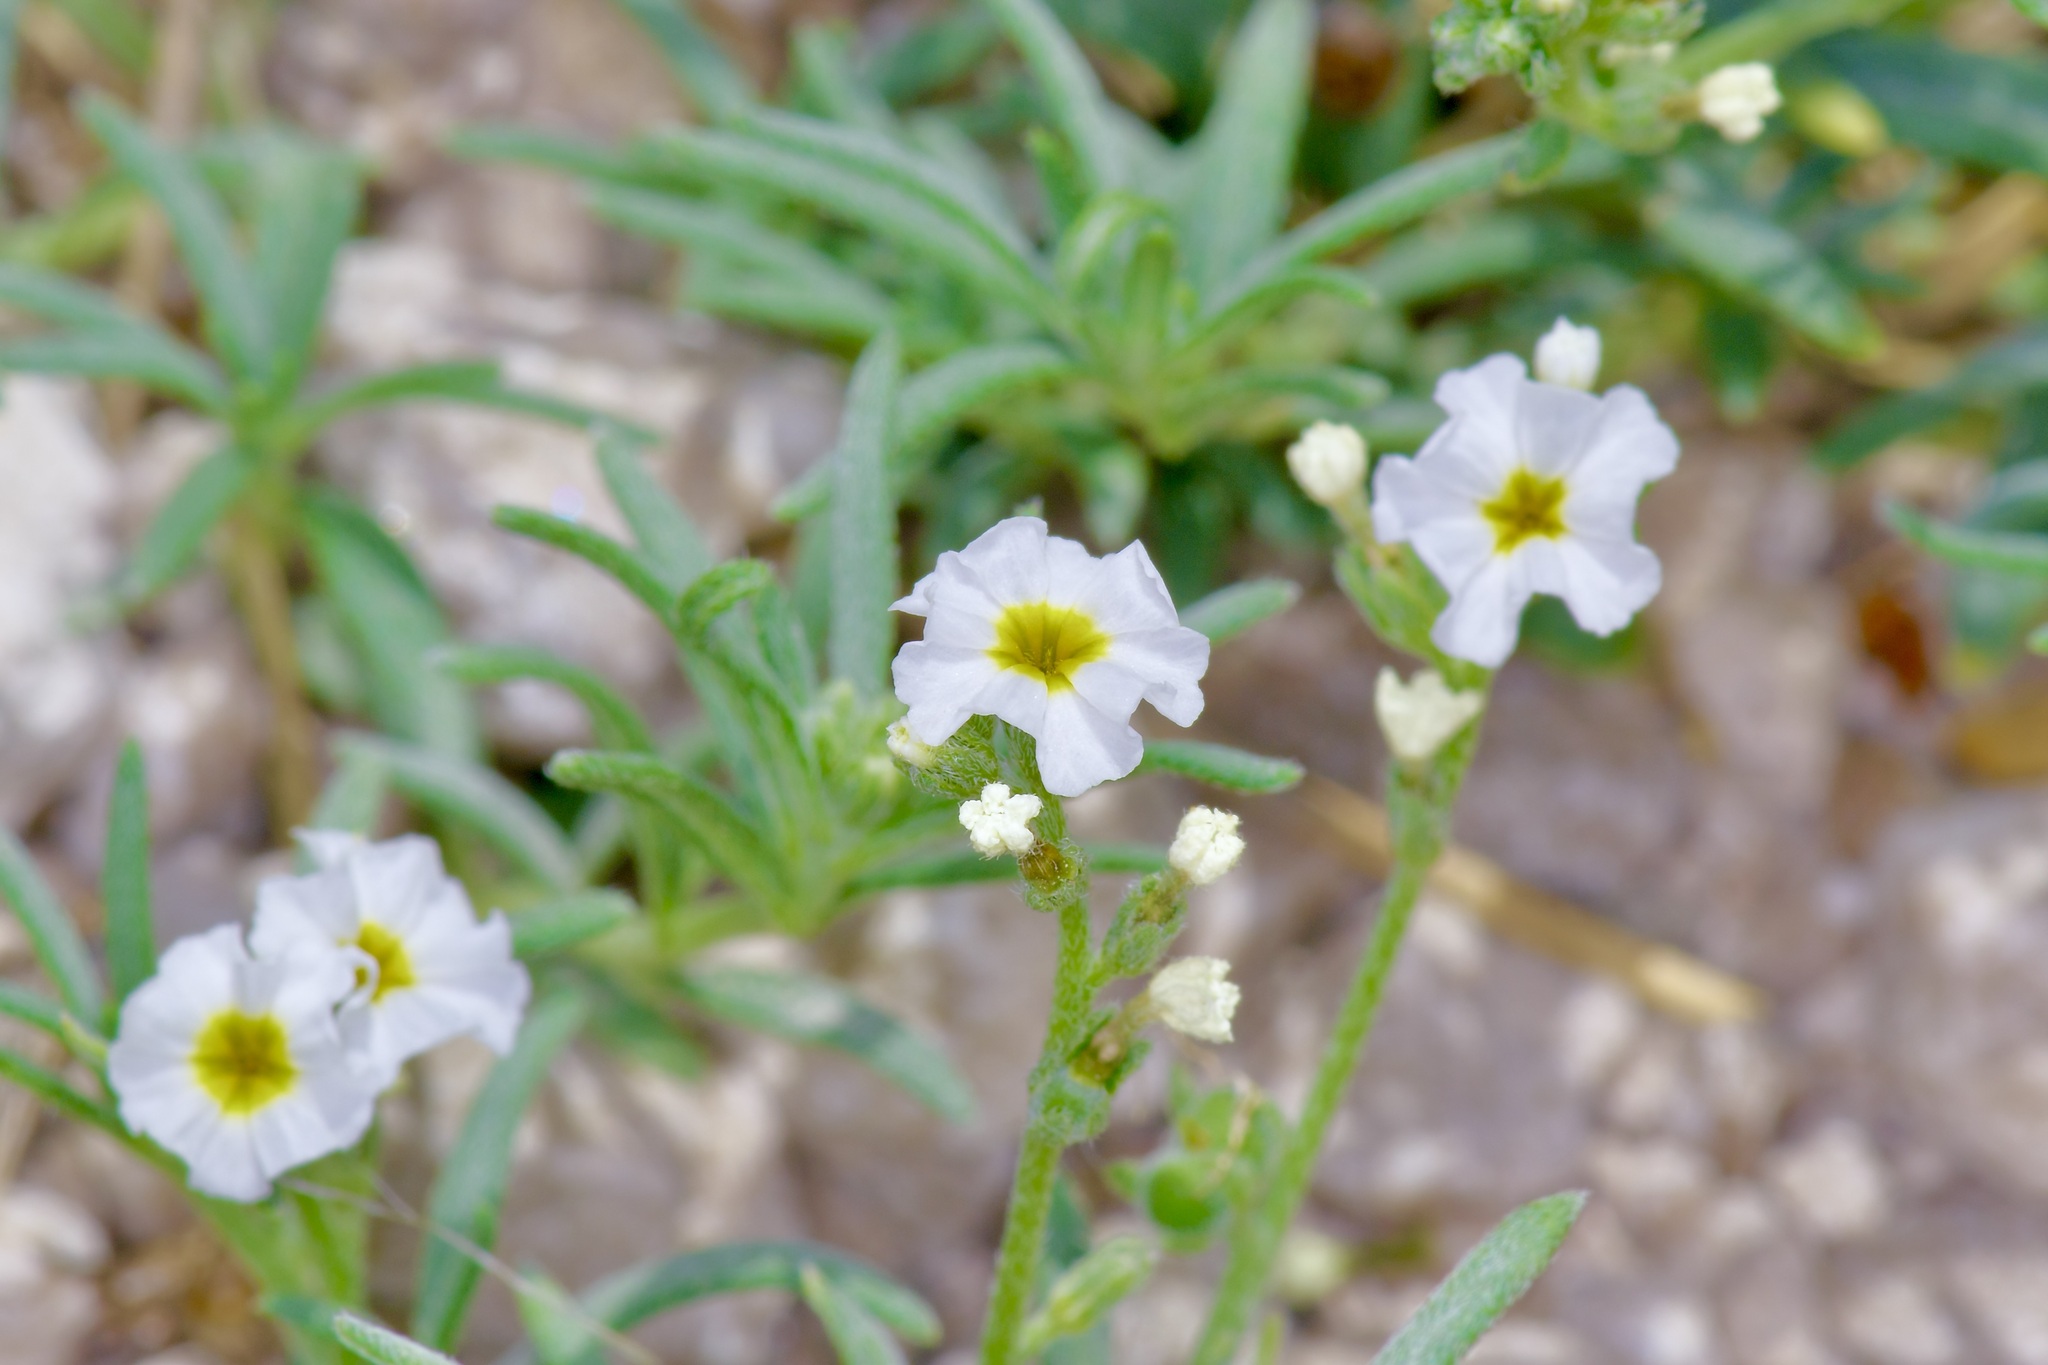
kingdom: Plantae
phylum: Tracheophyta
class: Magnoliopsida
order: Boraginales
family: Heliotropiaceae
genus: Euploca
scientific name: Euploca greggii
